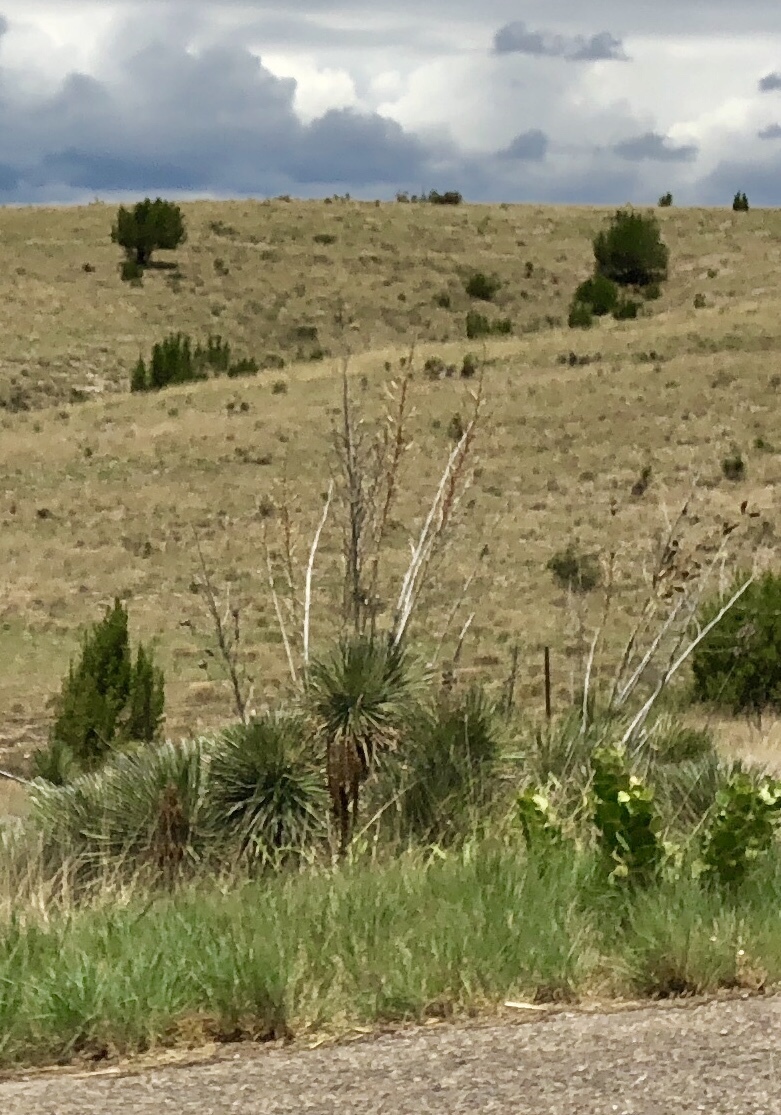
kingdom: Plantae
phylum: Tracheophyta
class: Liliopsida
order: Asparagales
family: Asparagaceae
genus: Yucca
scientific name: Yucca elata
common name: Palmella
